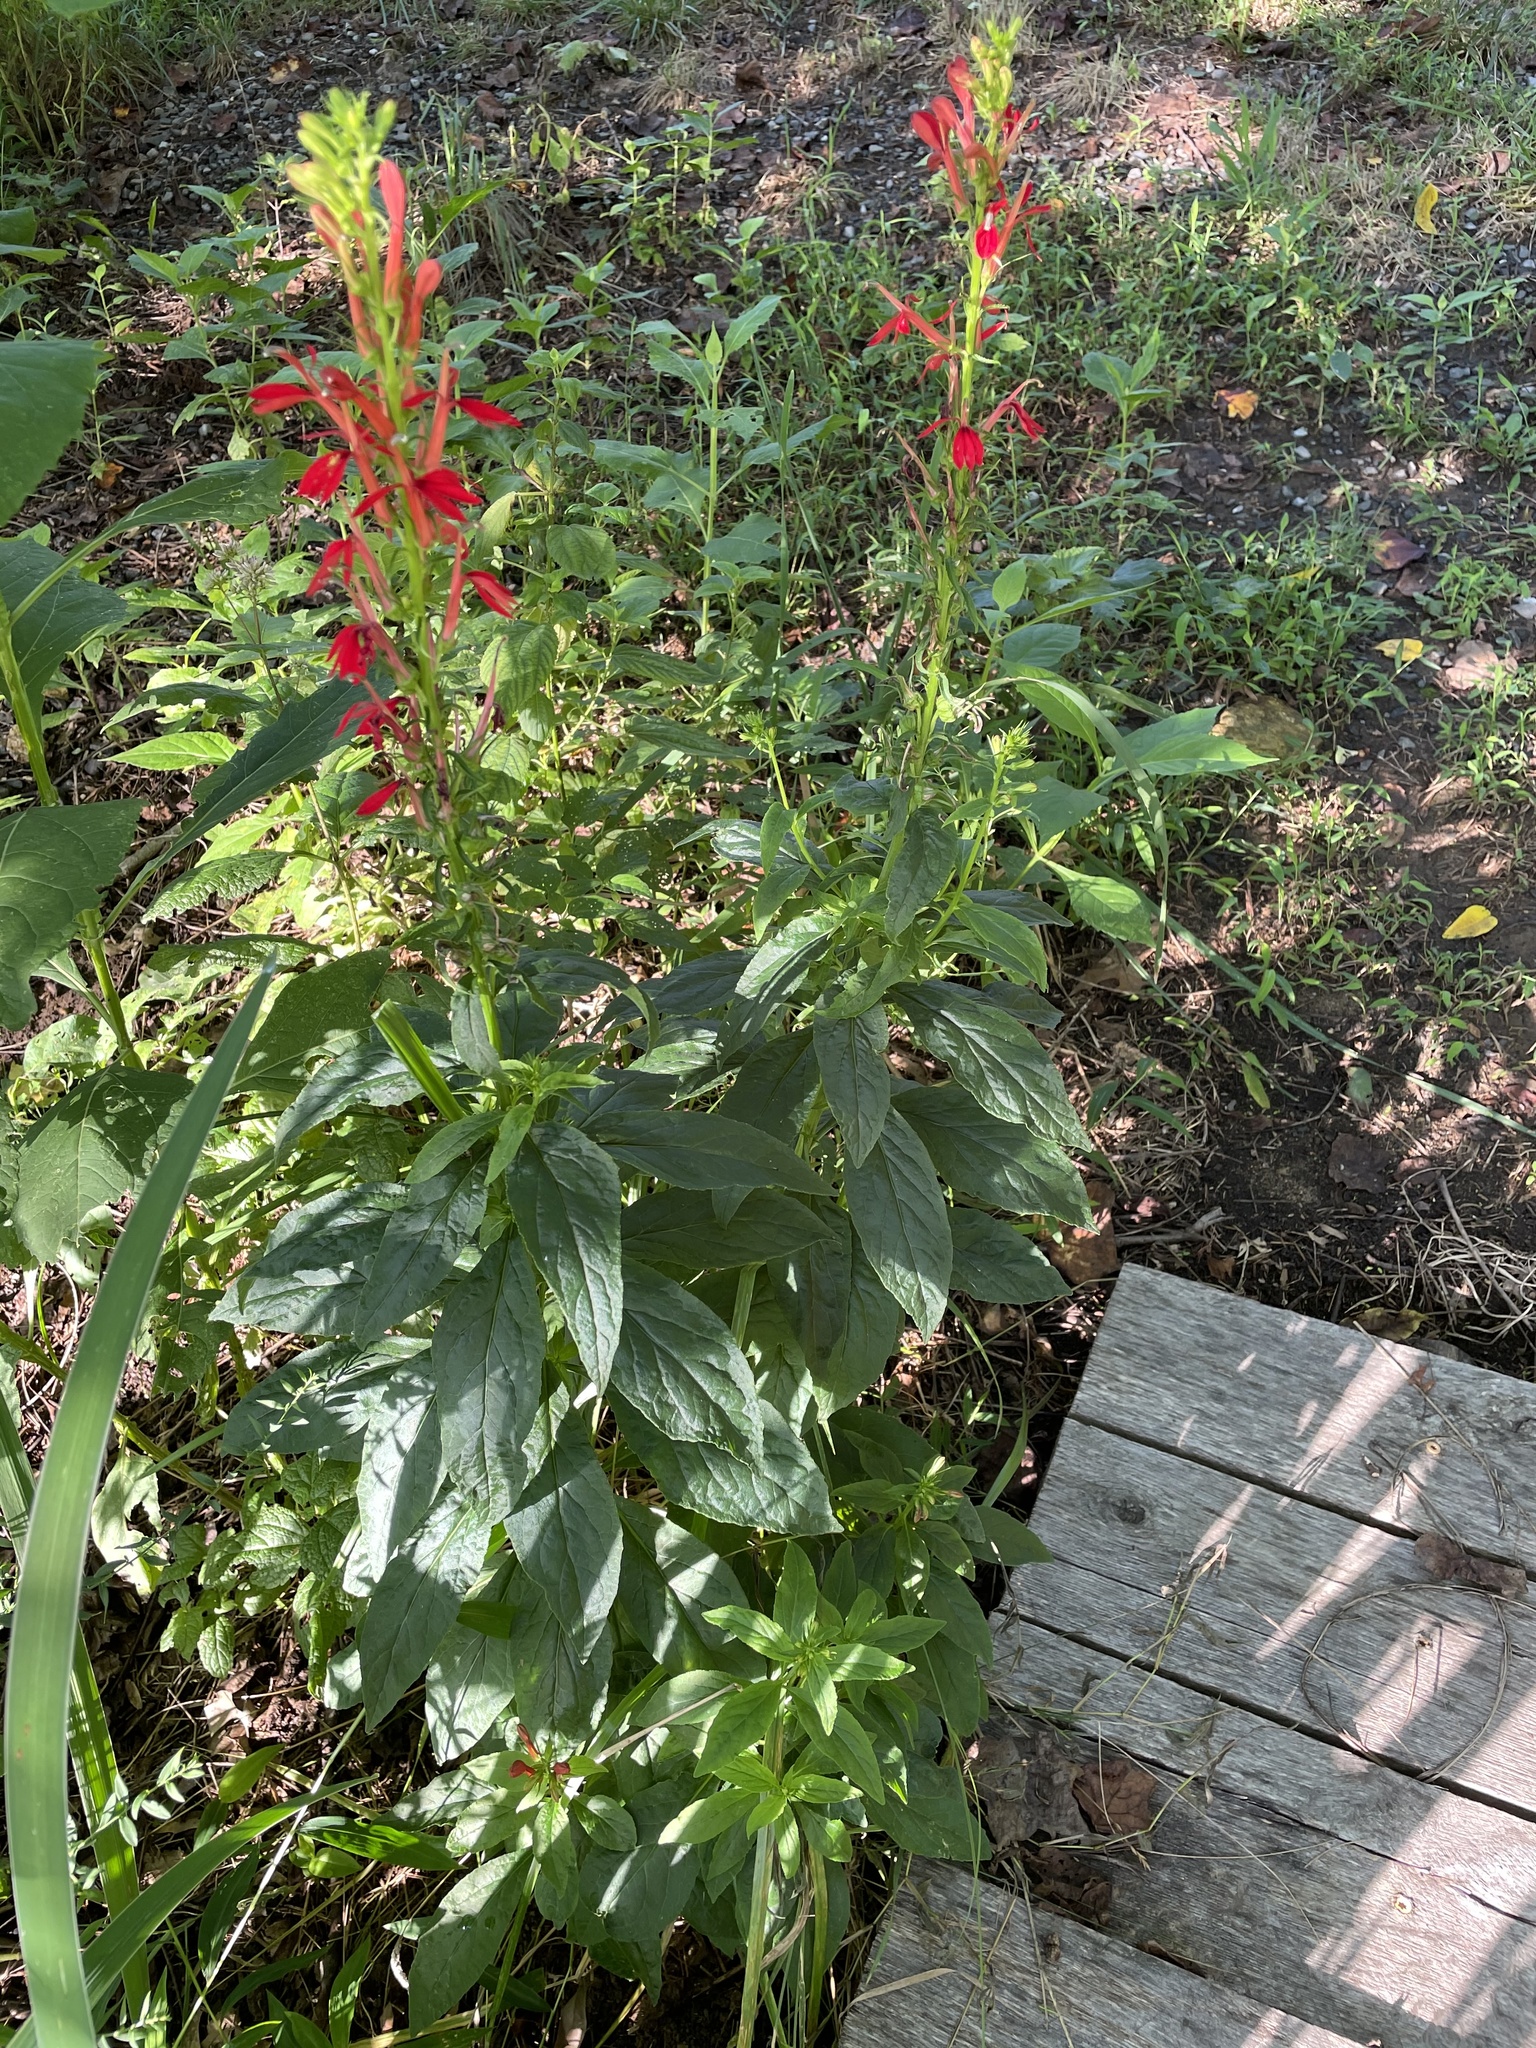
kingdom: Plantae
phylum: Tracheophyta
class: Magnoliopsida
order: Asterales
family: Campanulaceae
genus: Lobelia
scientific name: Lobelia cardinalis
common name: Cardinal flower
